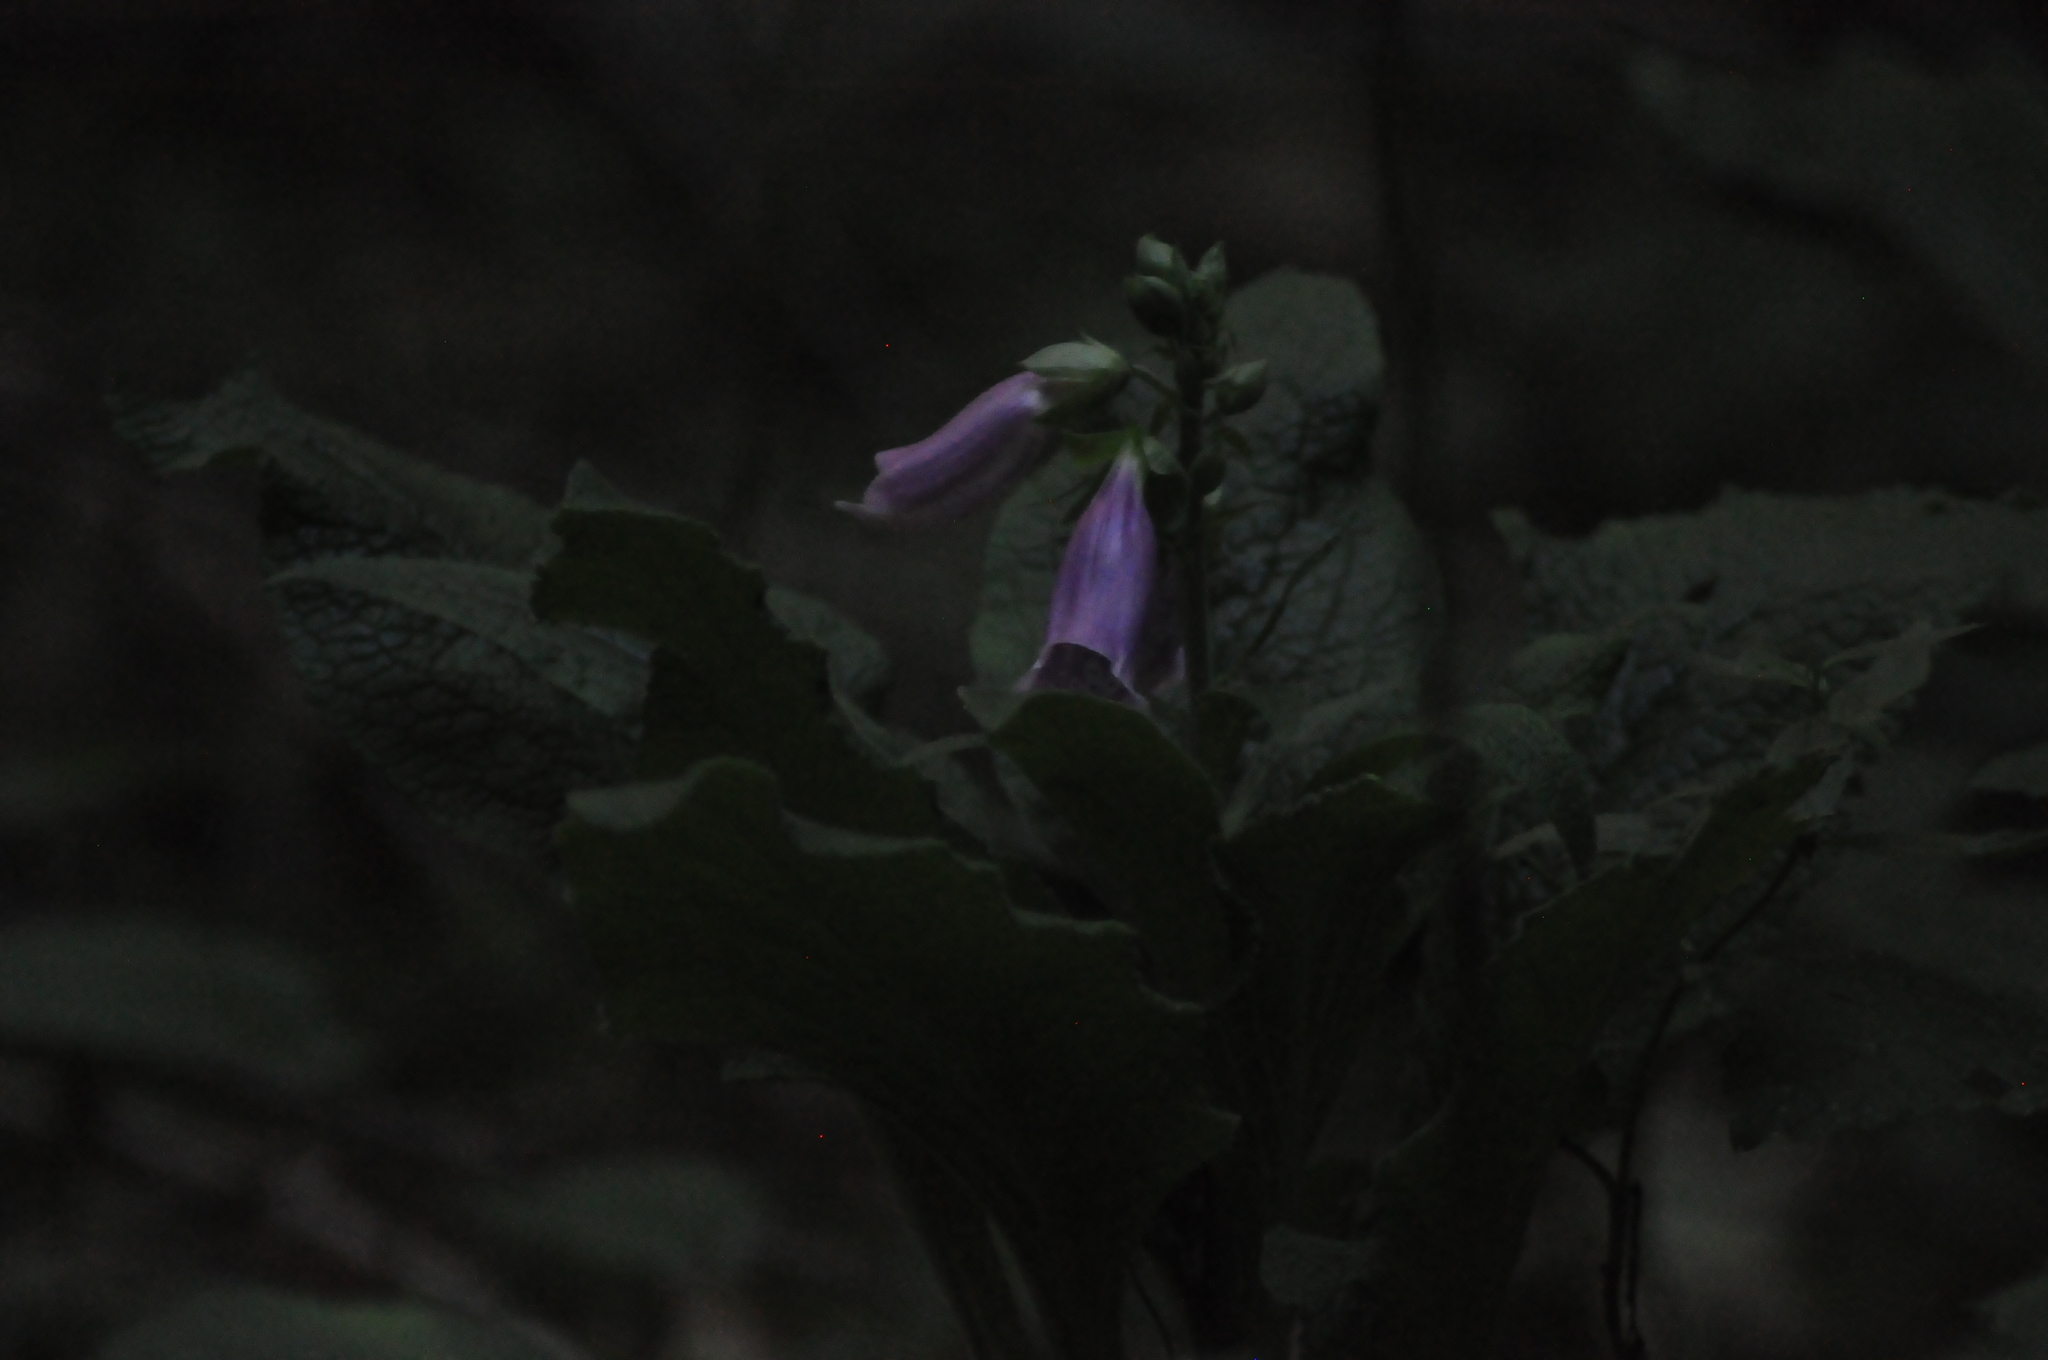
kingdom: Plantae
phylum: Tracheophyta
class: Magnoliopsida
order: Lamiales
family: Plantaginaceae
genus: Digitalis
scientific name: Digitalis purpurea
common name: Foxglove
